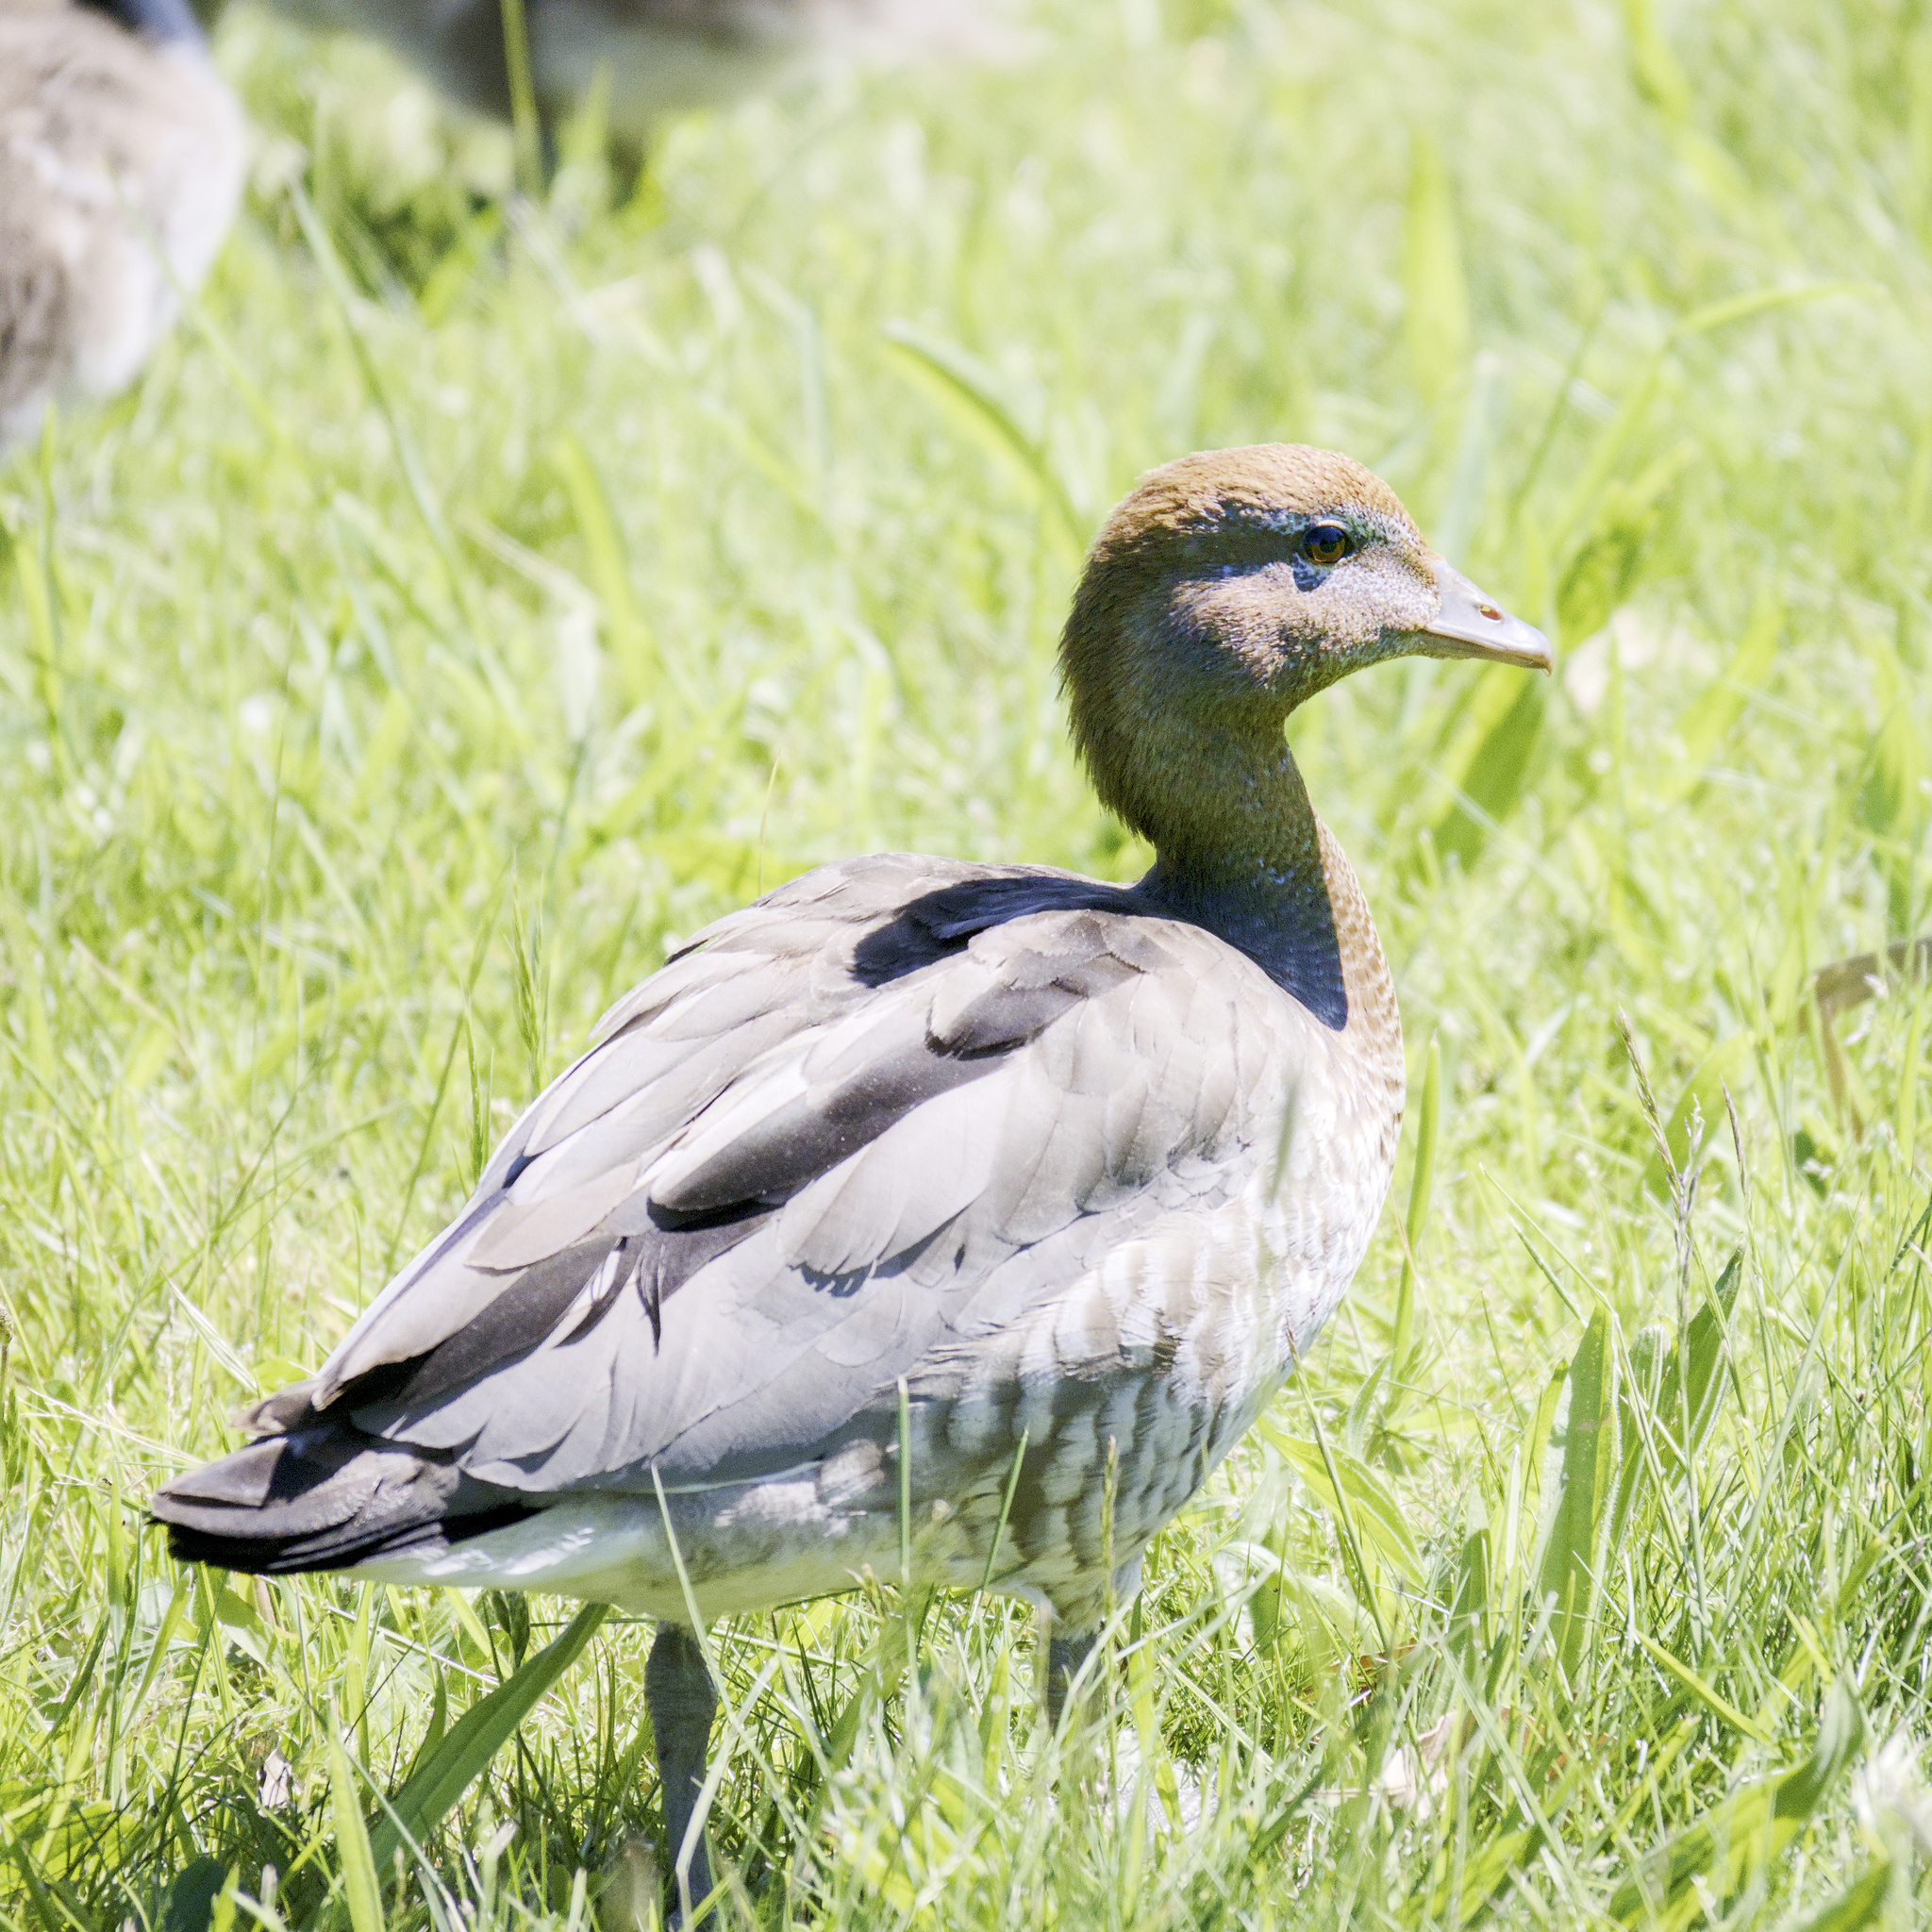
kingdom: Animalia
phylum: Chordata
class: Aves
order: Anseriformes
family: Anatidae
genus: Chenonetta
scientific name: Chenonetta jubata
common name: Maned duck
